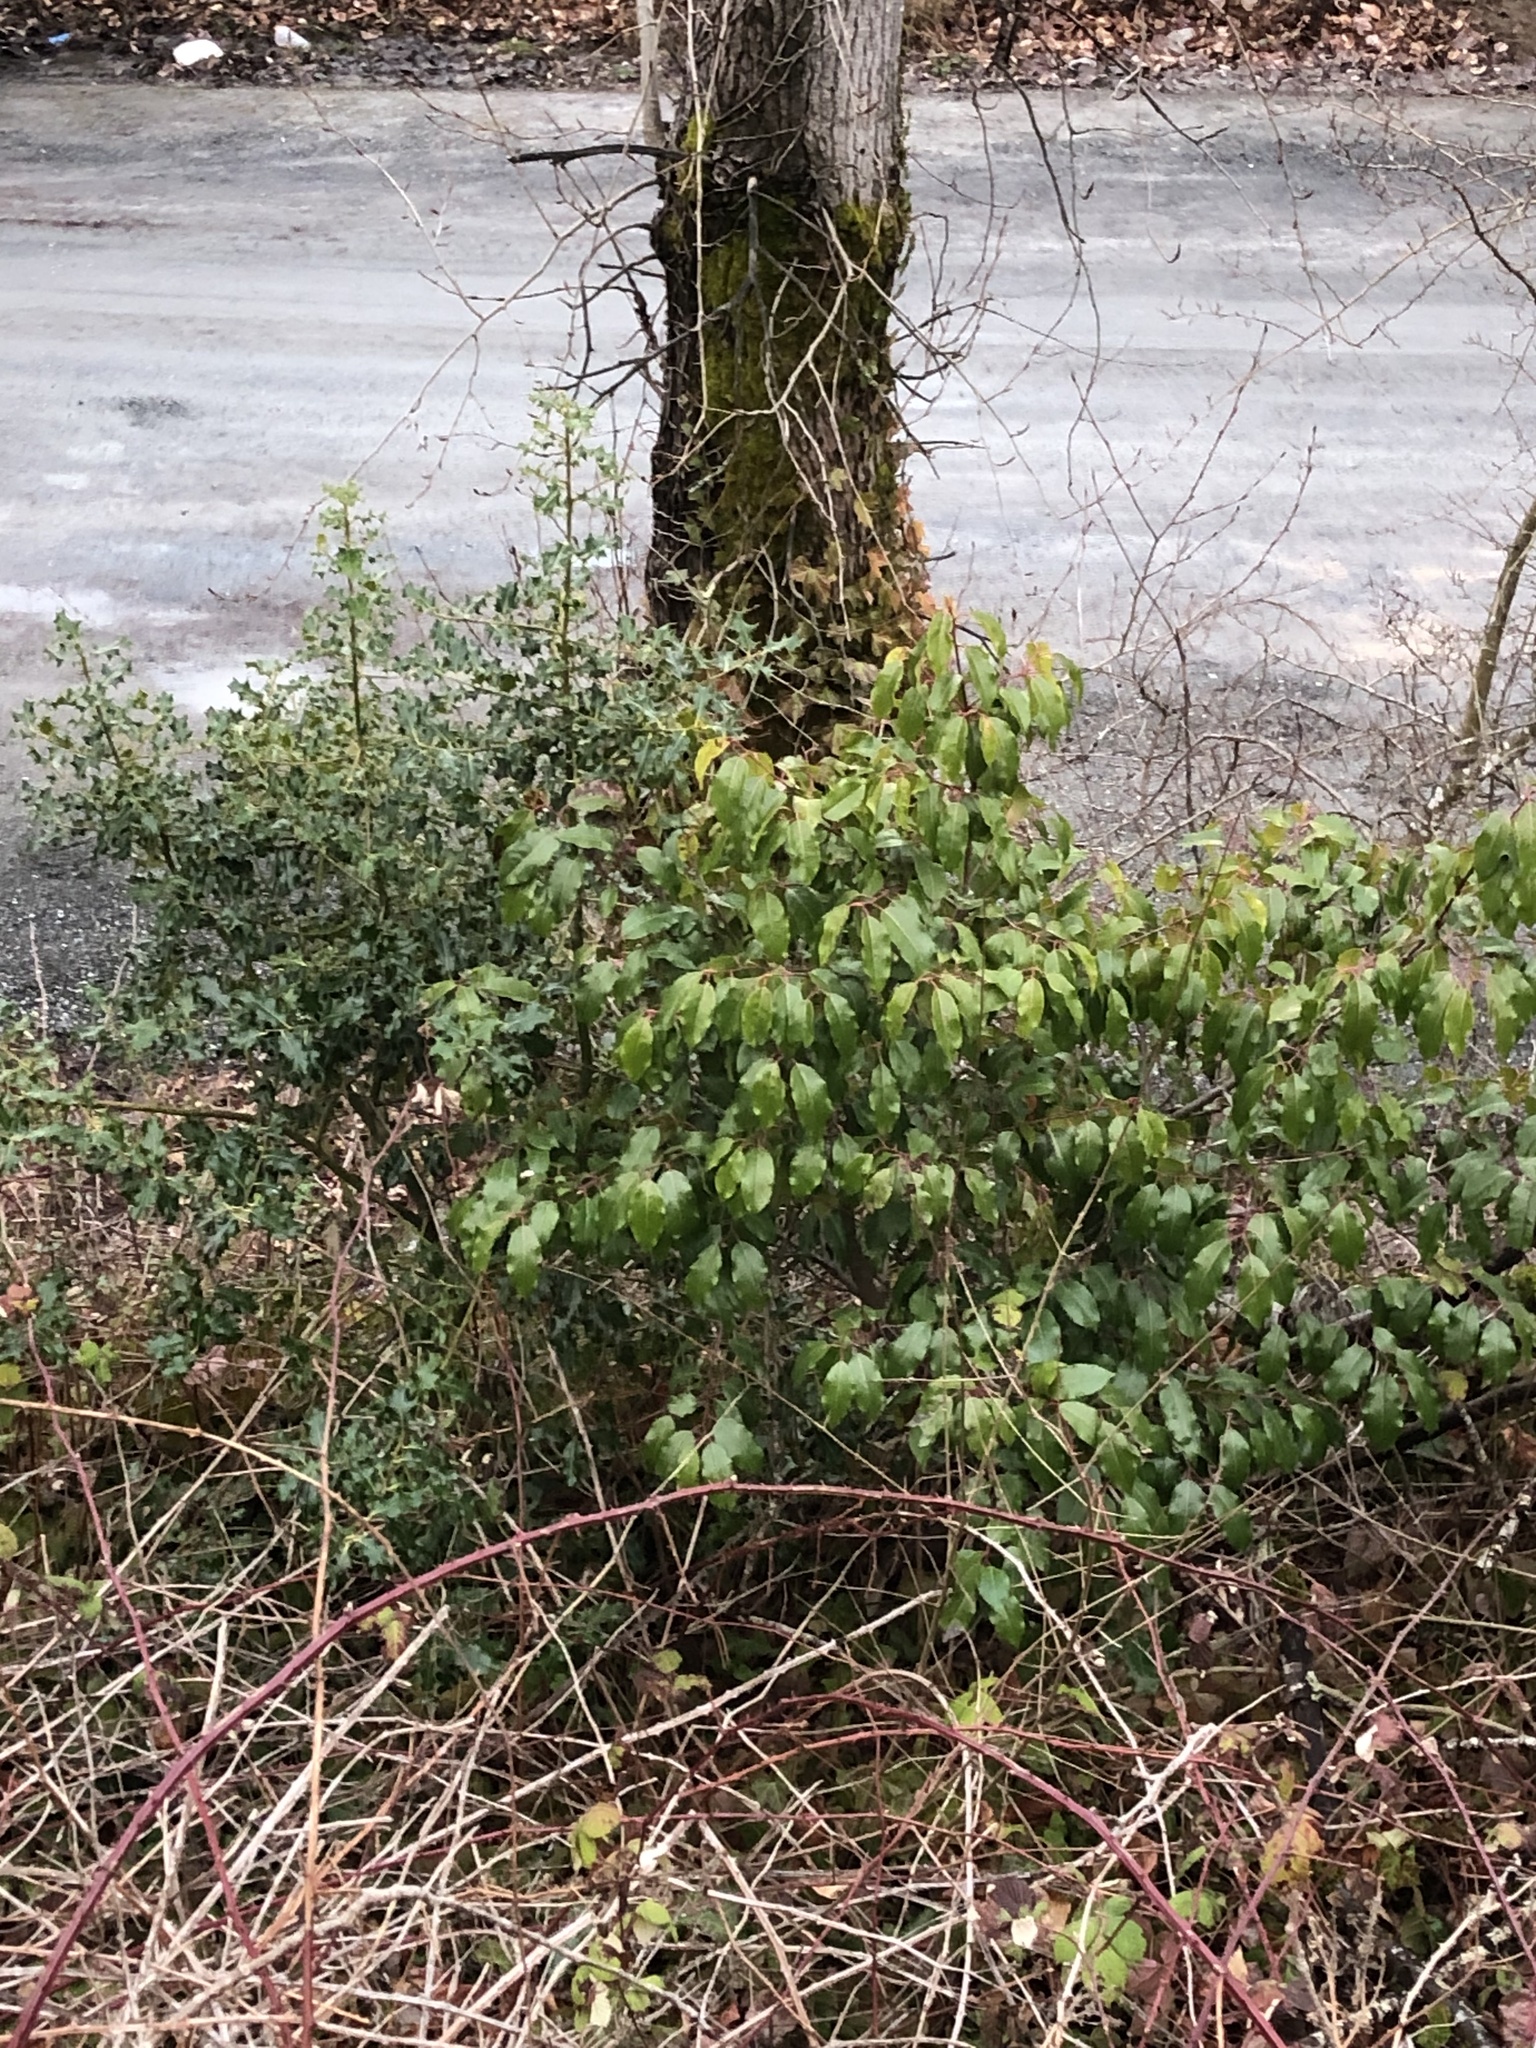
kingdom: Plantae
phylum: Tracheophyta
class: Magnoliopsida
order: Aquifoliales
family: Aquifoliaceae
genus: Ilex
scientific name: Ilex aquifolium
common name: English holly
